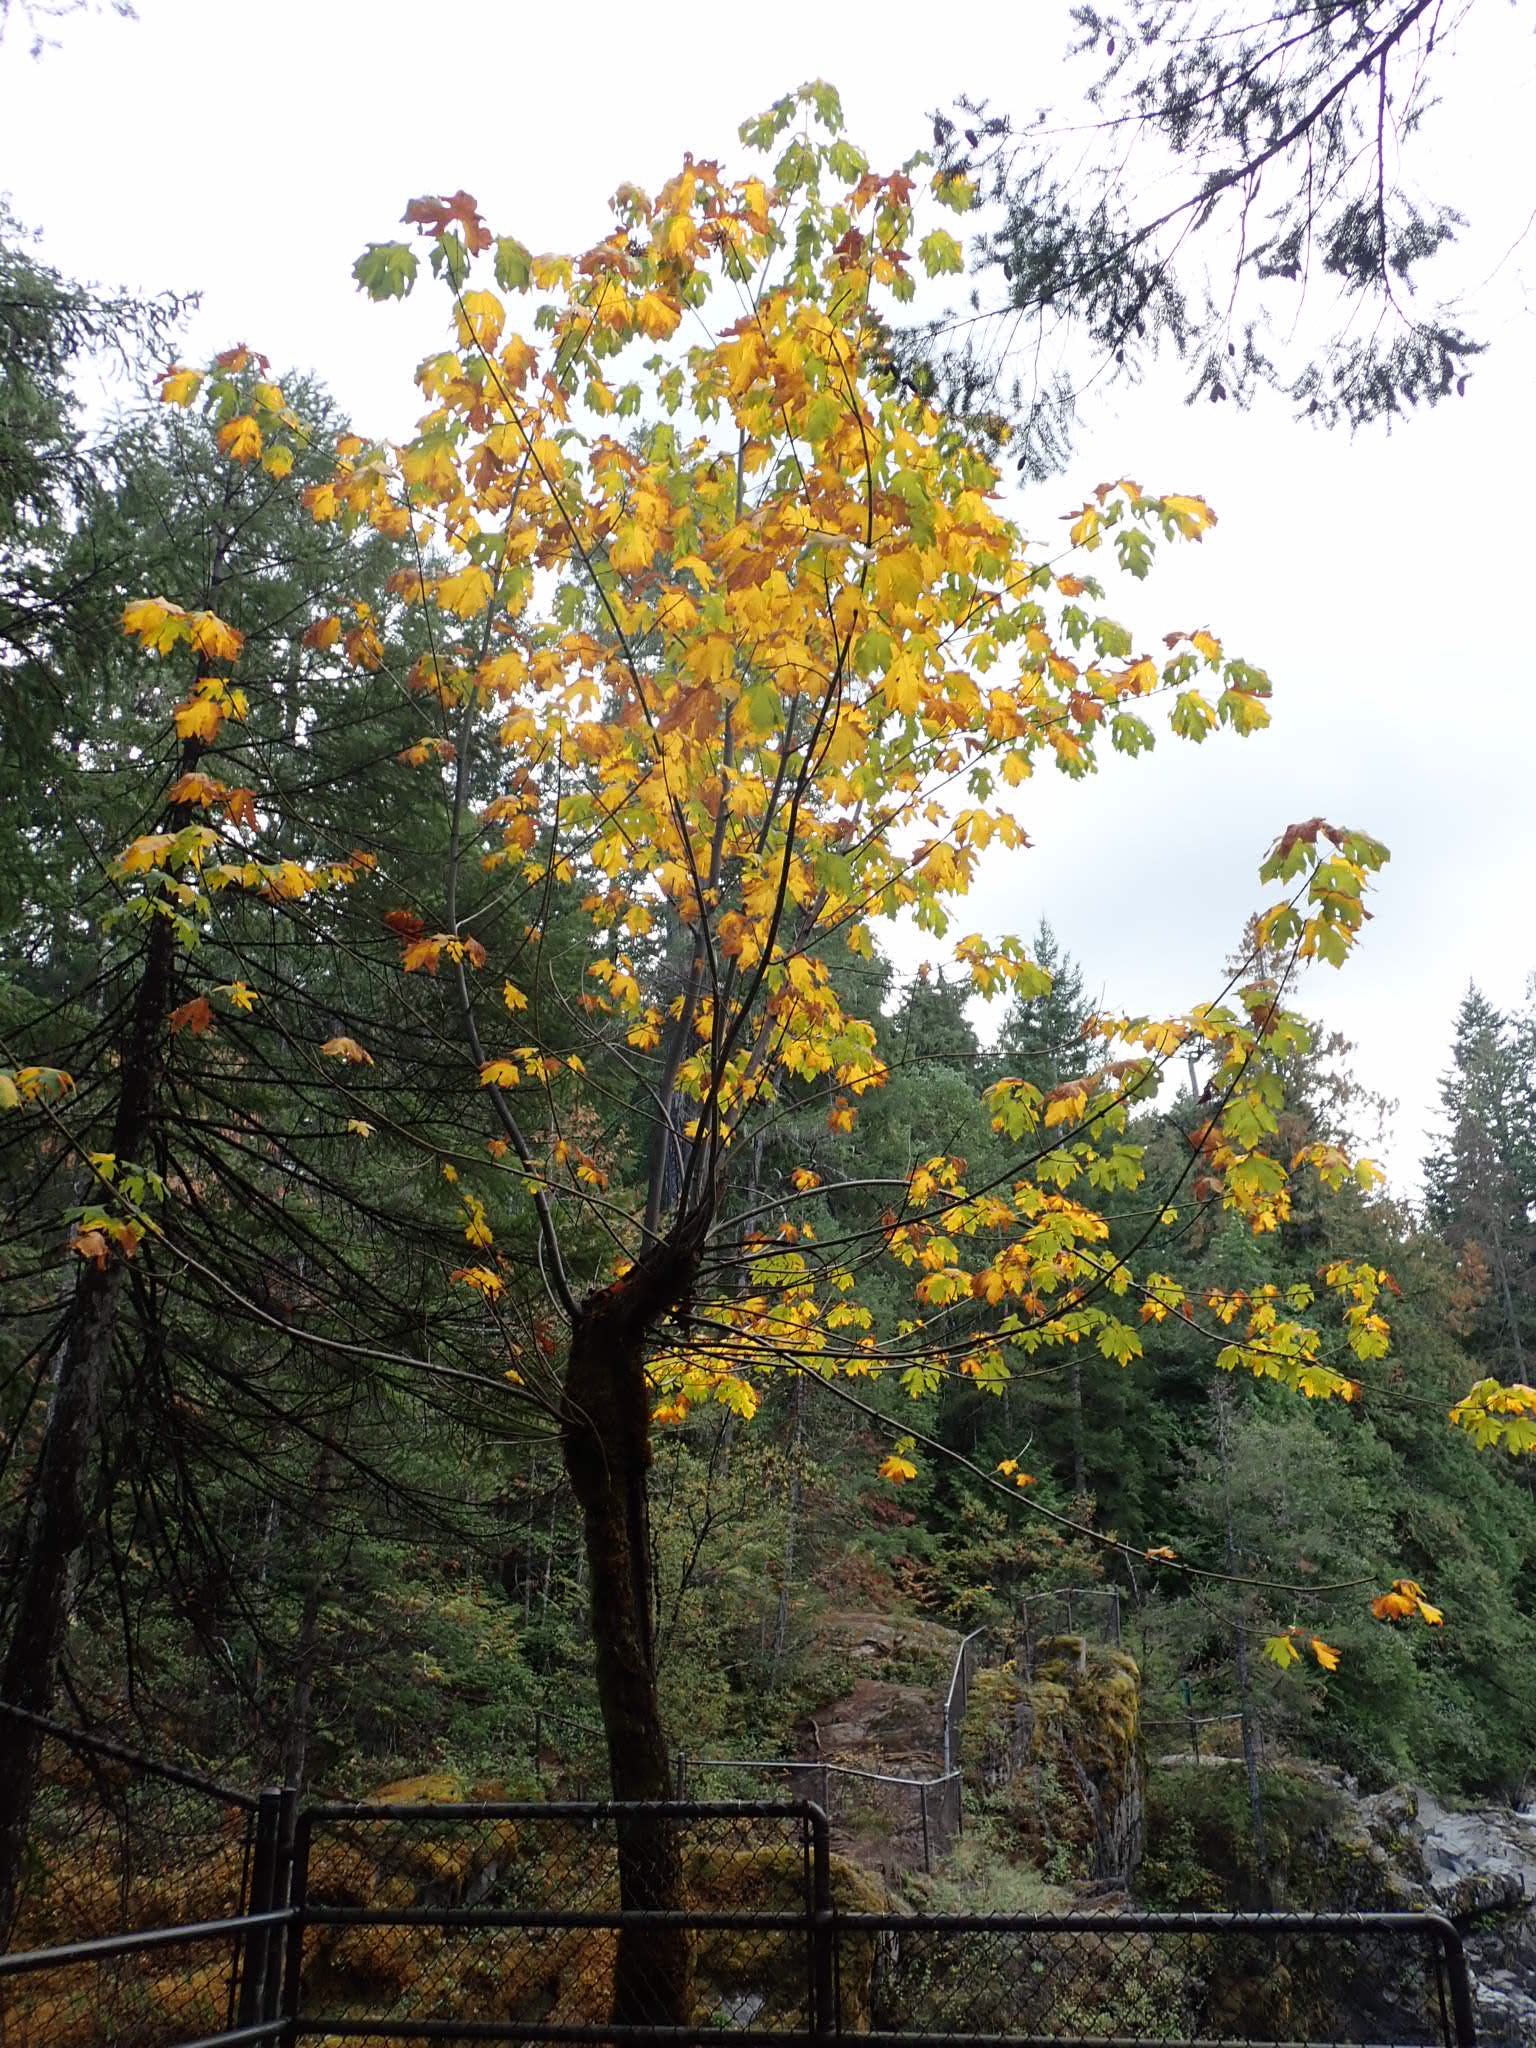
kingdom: Plantae
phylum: Tracheophyta
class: Magnoliopsida
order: Sapindales
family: Sapindaceae
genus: Acer
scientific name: Acer macrophyllum
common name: Oregon maple
